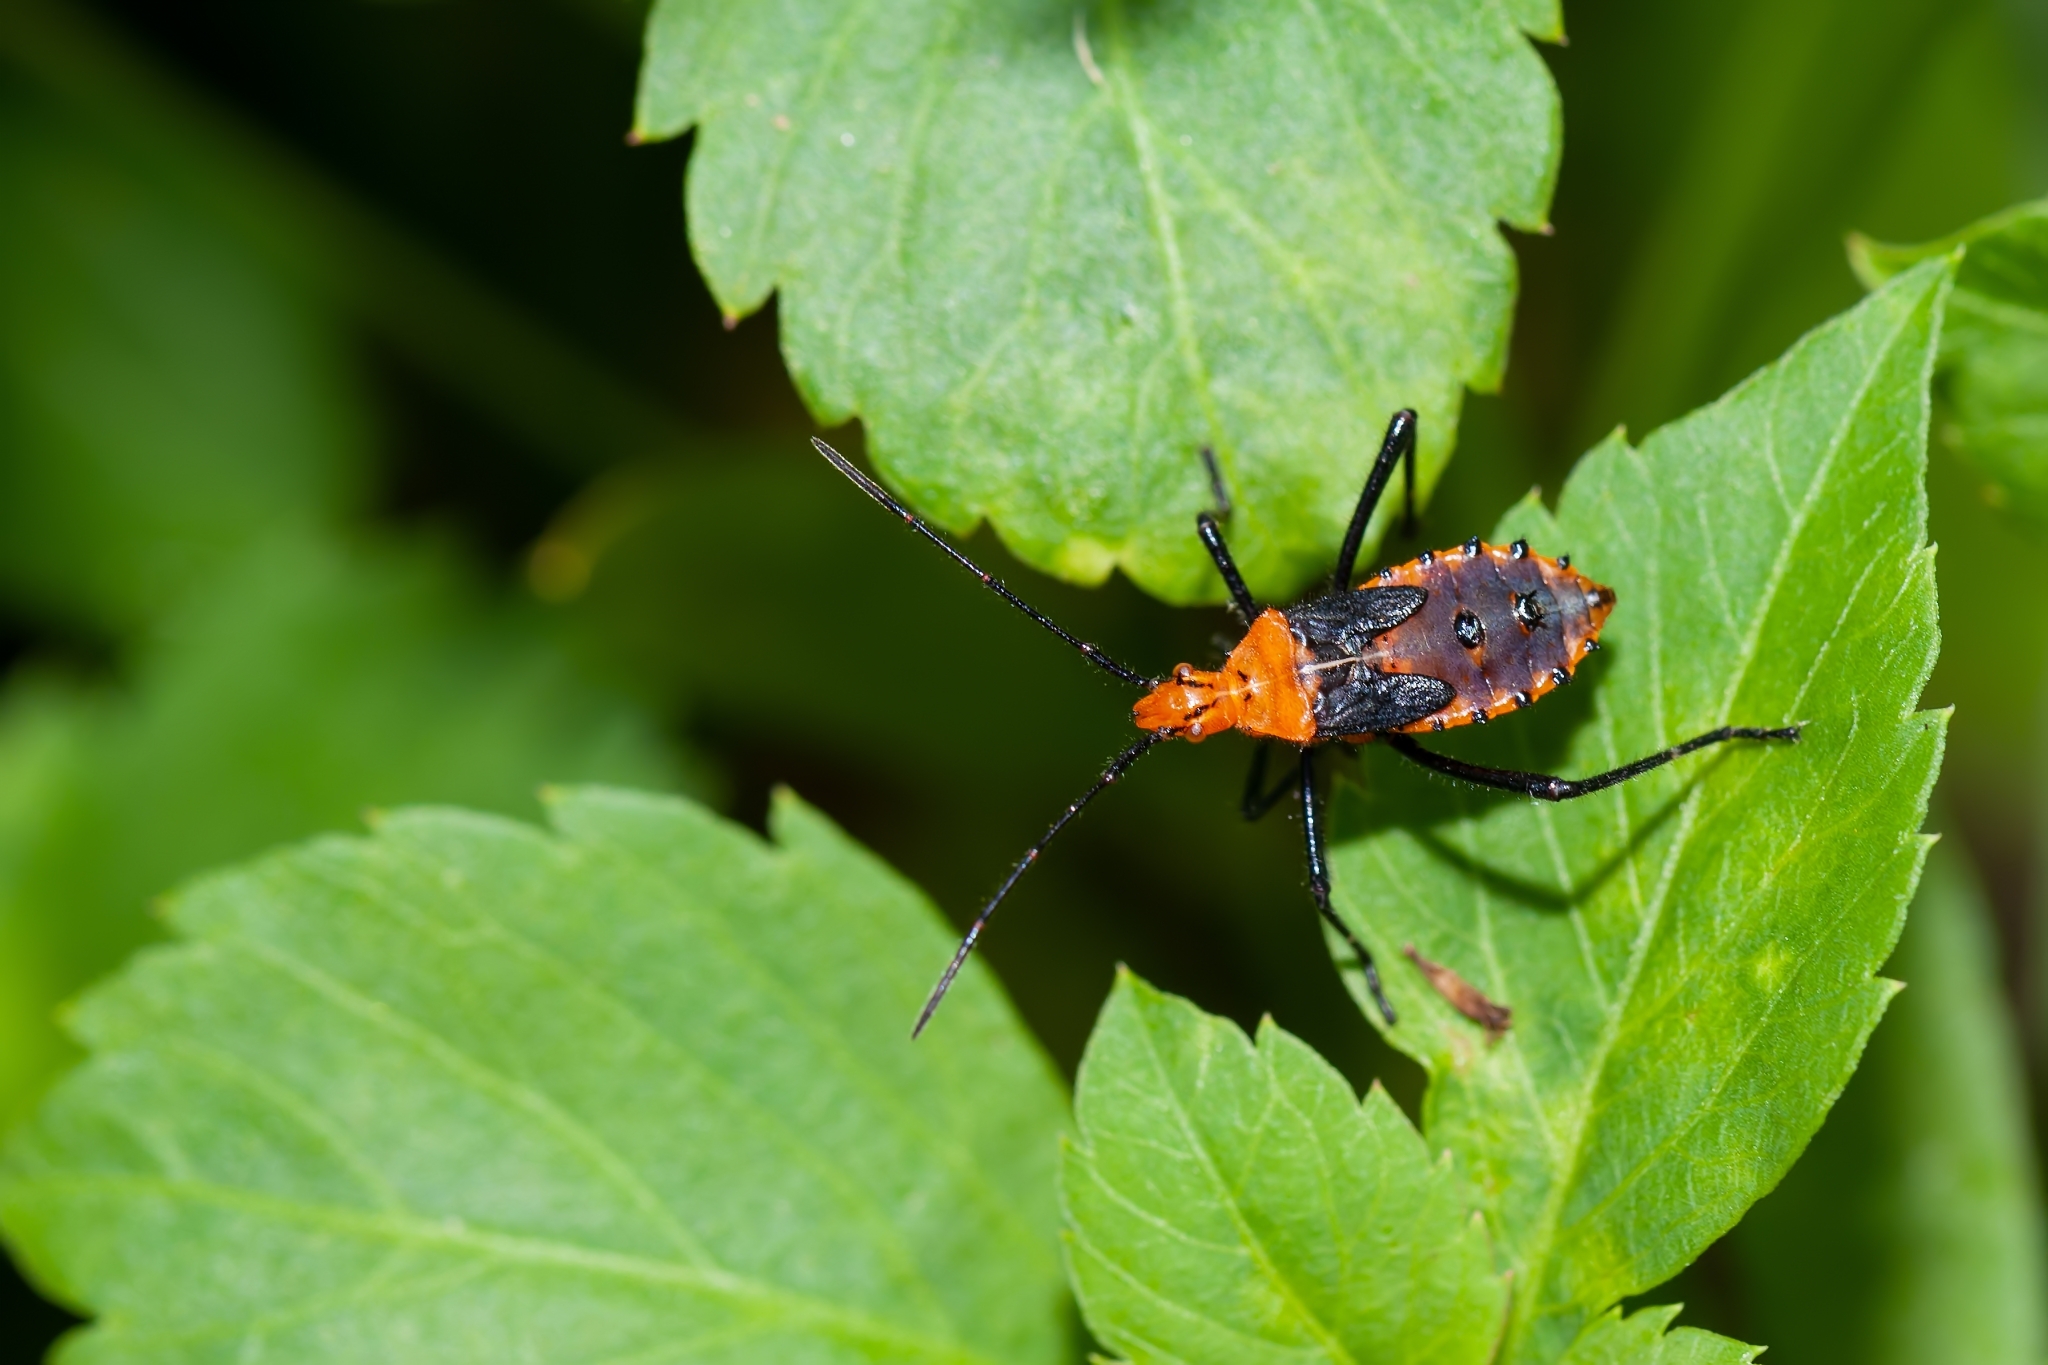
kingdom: Animalia
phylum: Arthropoda
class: Insecta
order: Hemiptera
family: Coreidae
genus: Phthiacnemia
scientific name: Phthiacnemia picta
